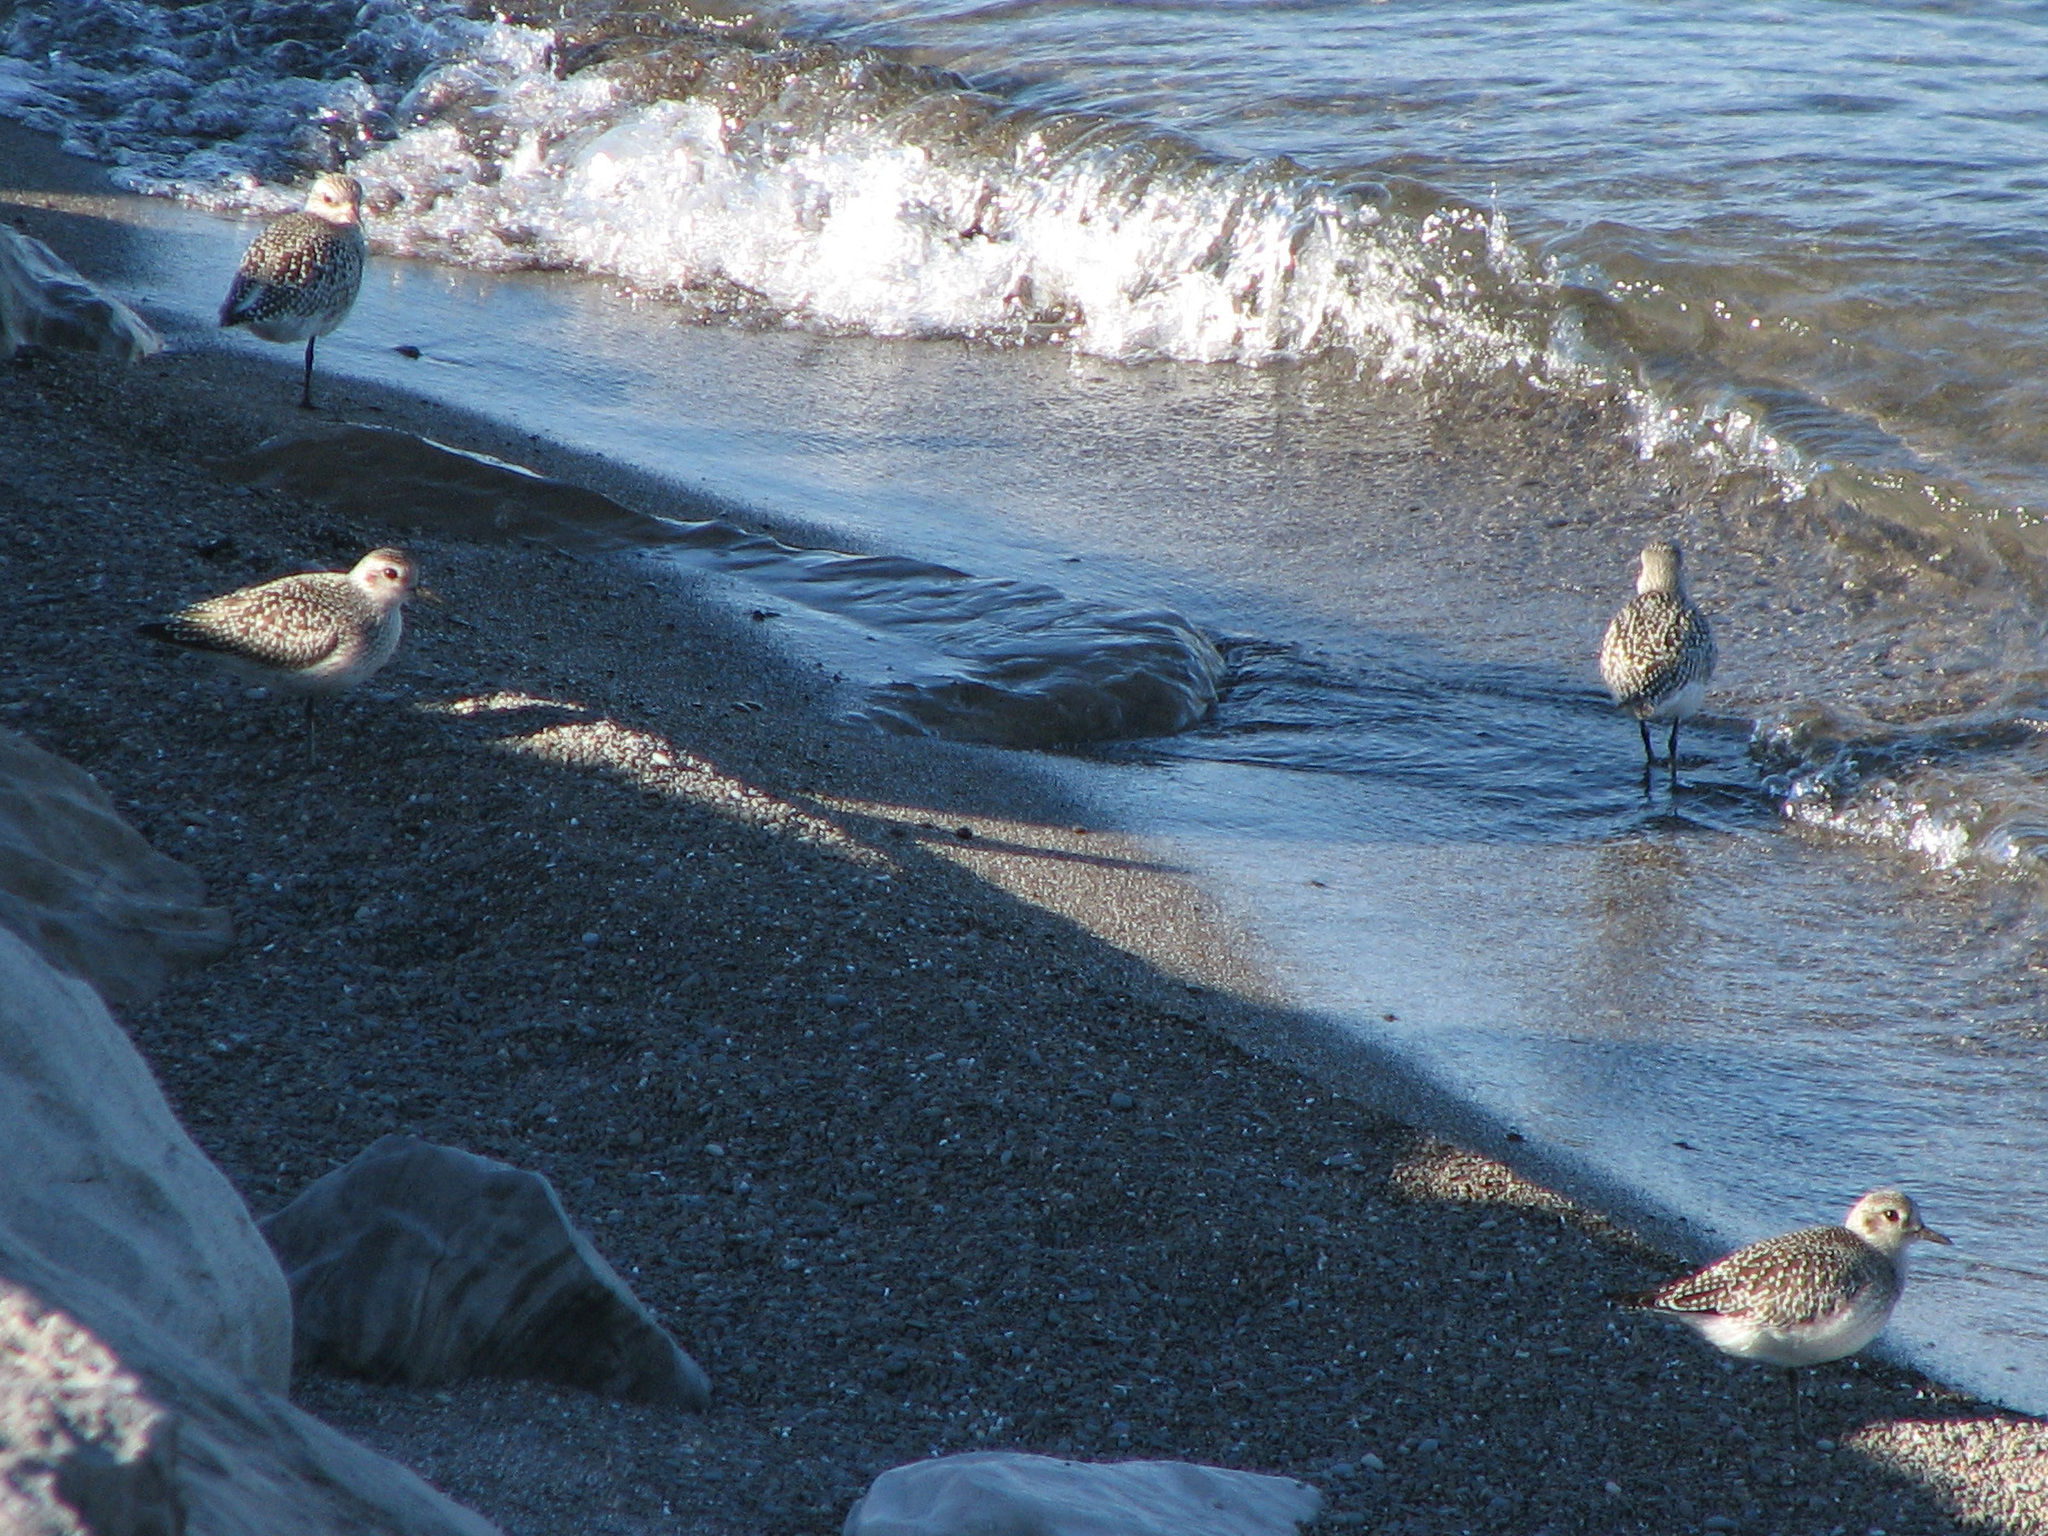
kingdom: Animalia
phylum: Chordata
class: Aves
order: Charadriiformes
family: Charadriidae
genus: Pluvialis
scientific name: Pluvialis squatarola
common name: Grey plover
